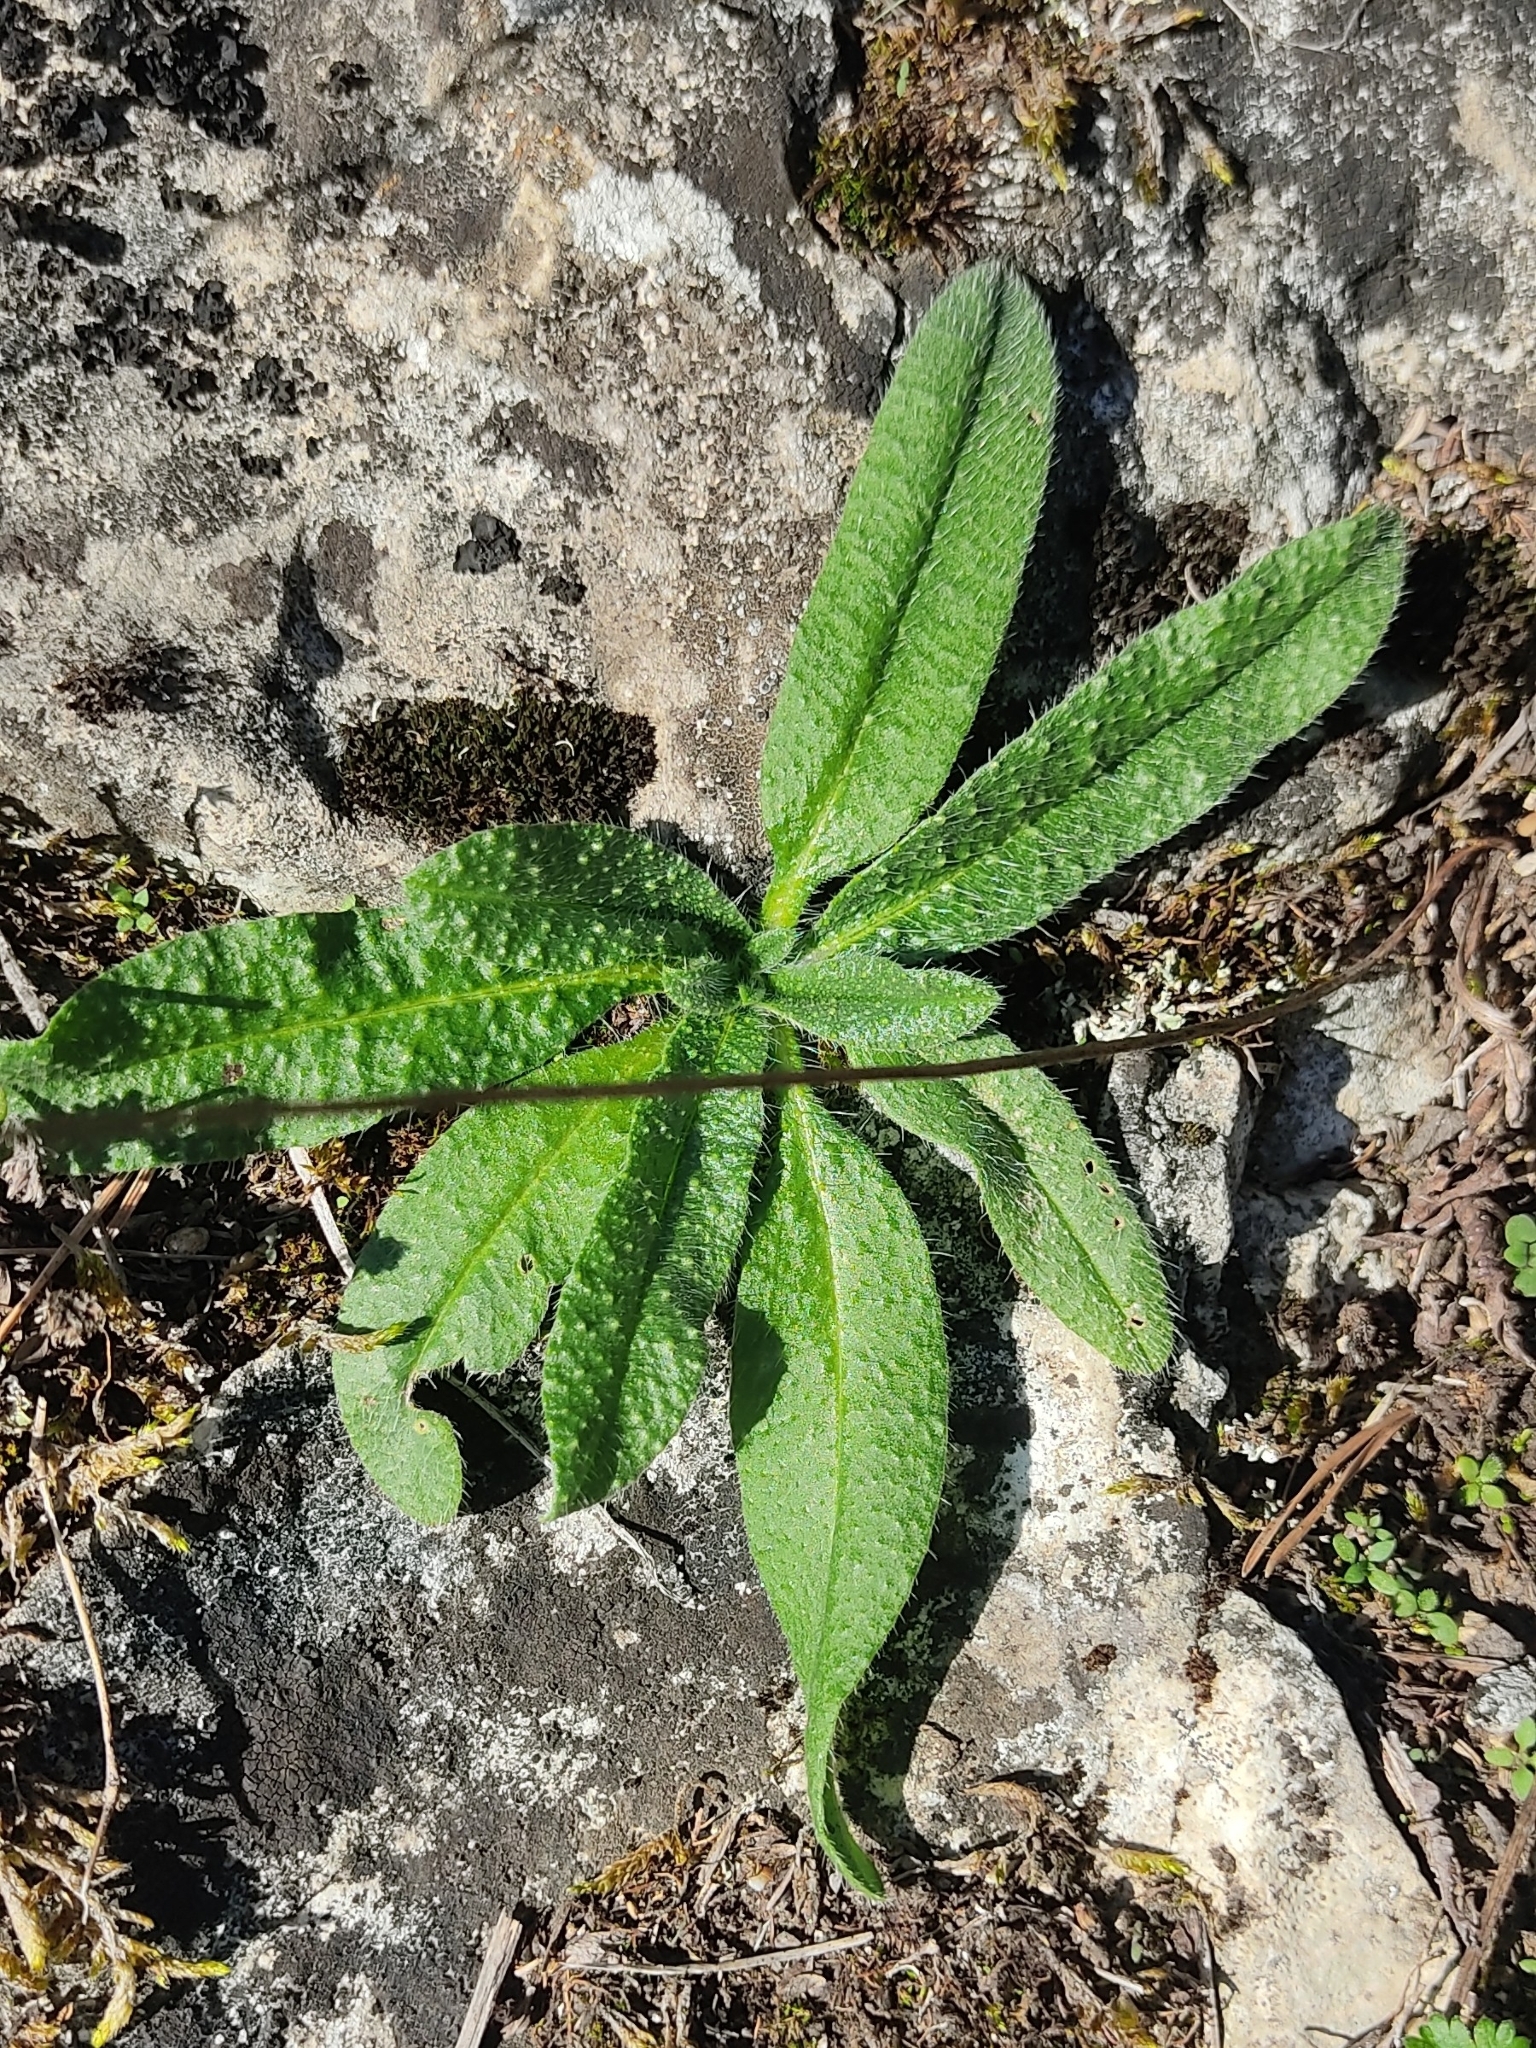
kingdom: Plantae
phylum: Tracheophyta
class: Magnoliopsida
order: Boraginales
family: Boraginaceae
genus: Echium
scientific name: Echium vulgare
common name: Common viper's bugloss
